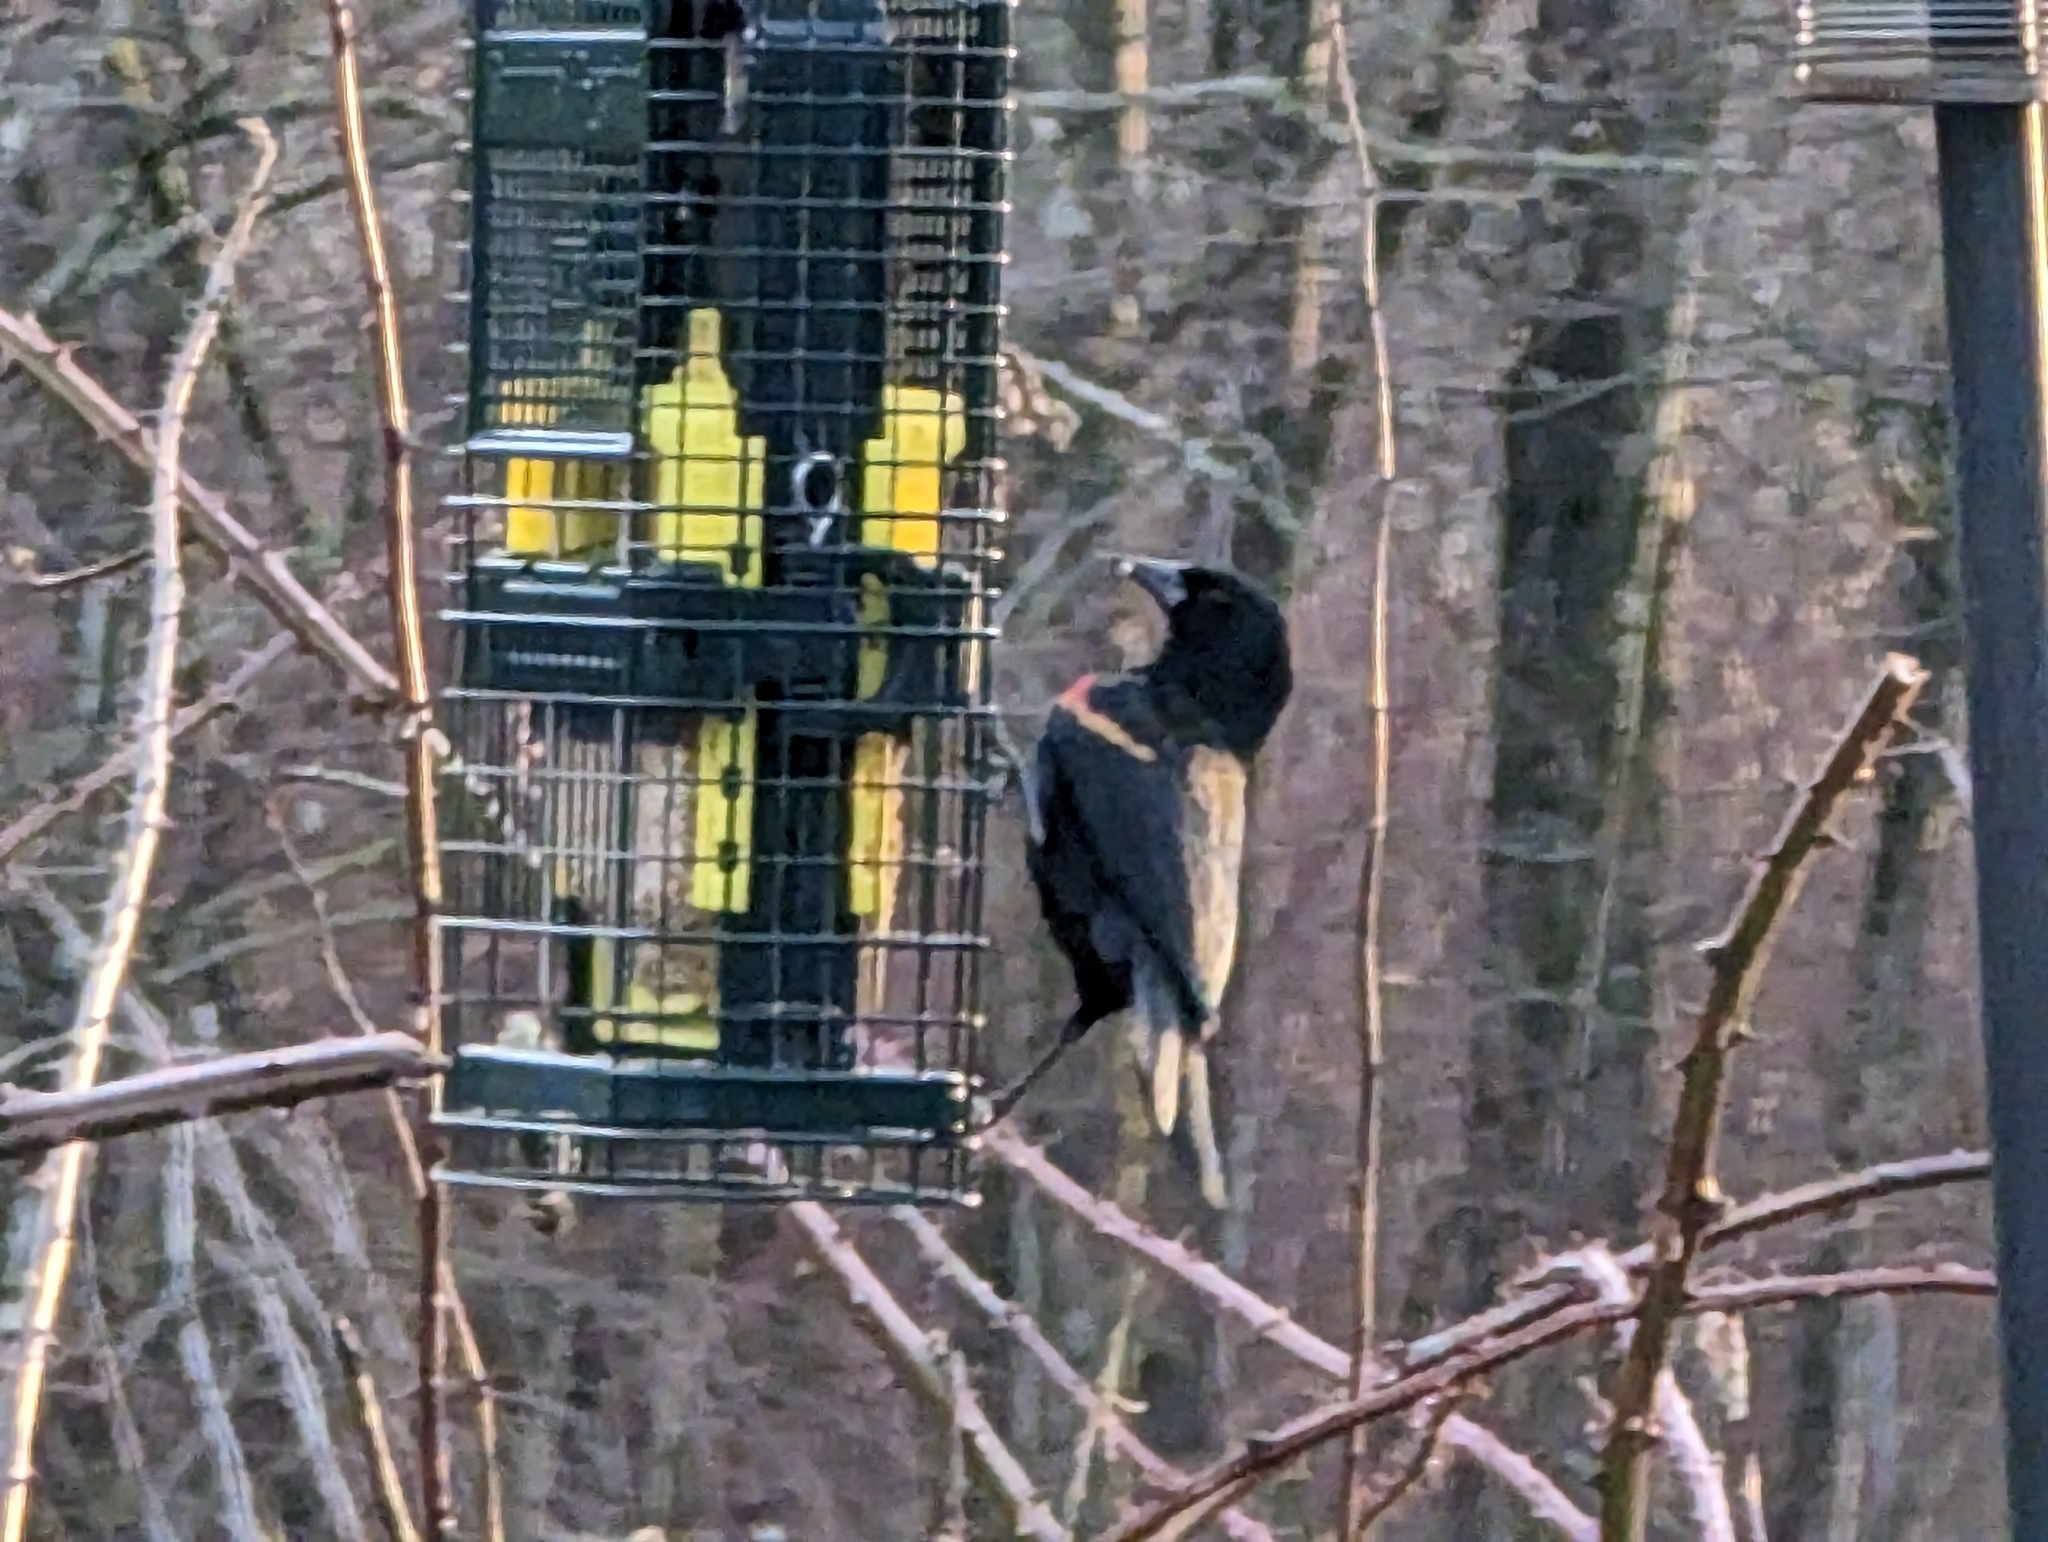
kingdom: Animalia
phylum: Chordata
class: Aves
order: Passeriformes
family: Icteridae
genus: Agelaius
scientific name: Agelaius phoeniceus
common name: Red-winged blackbird
